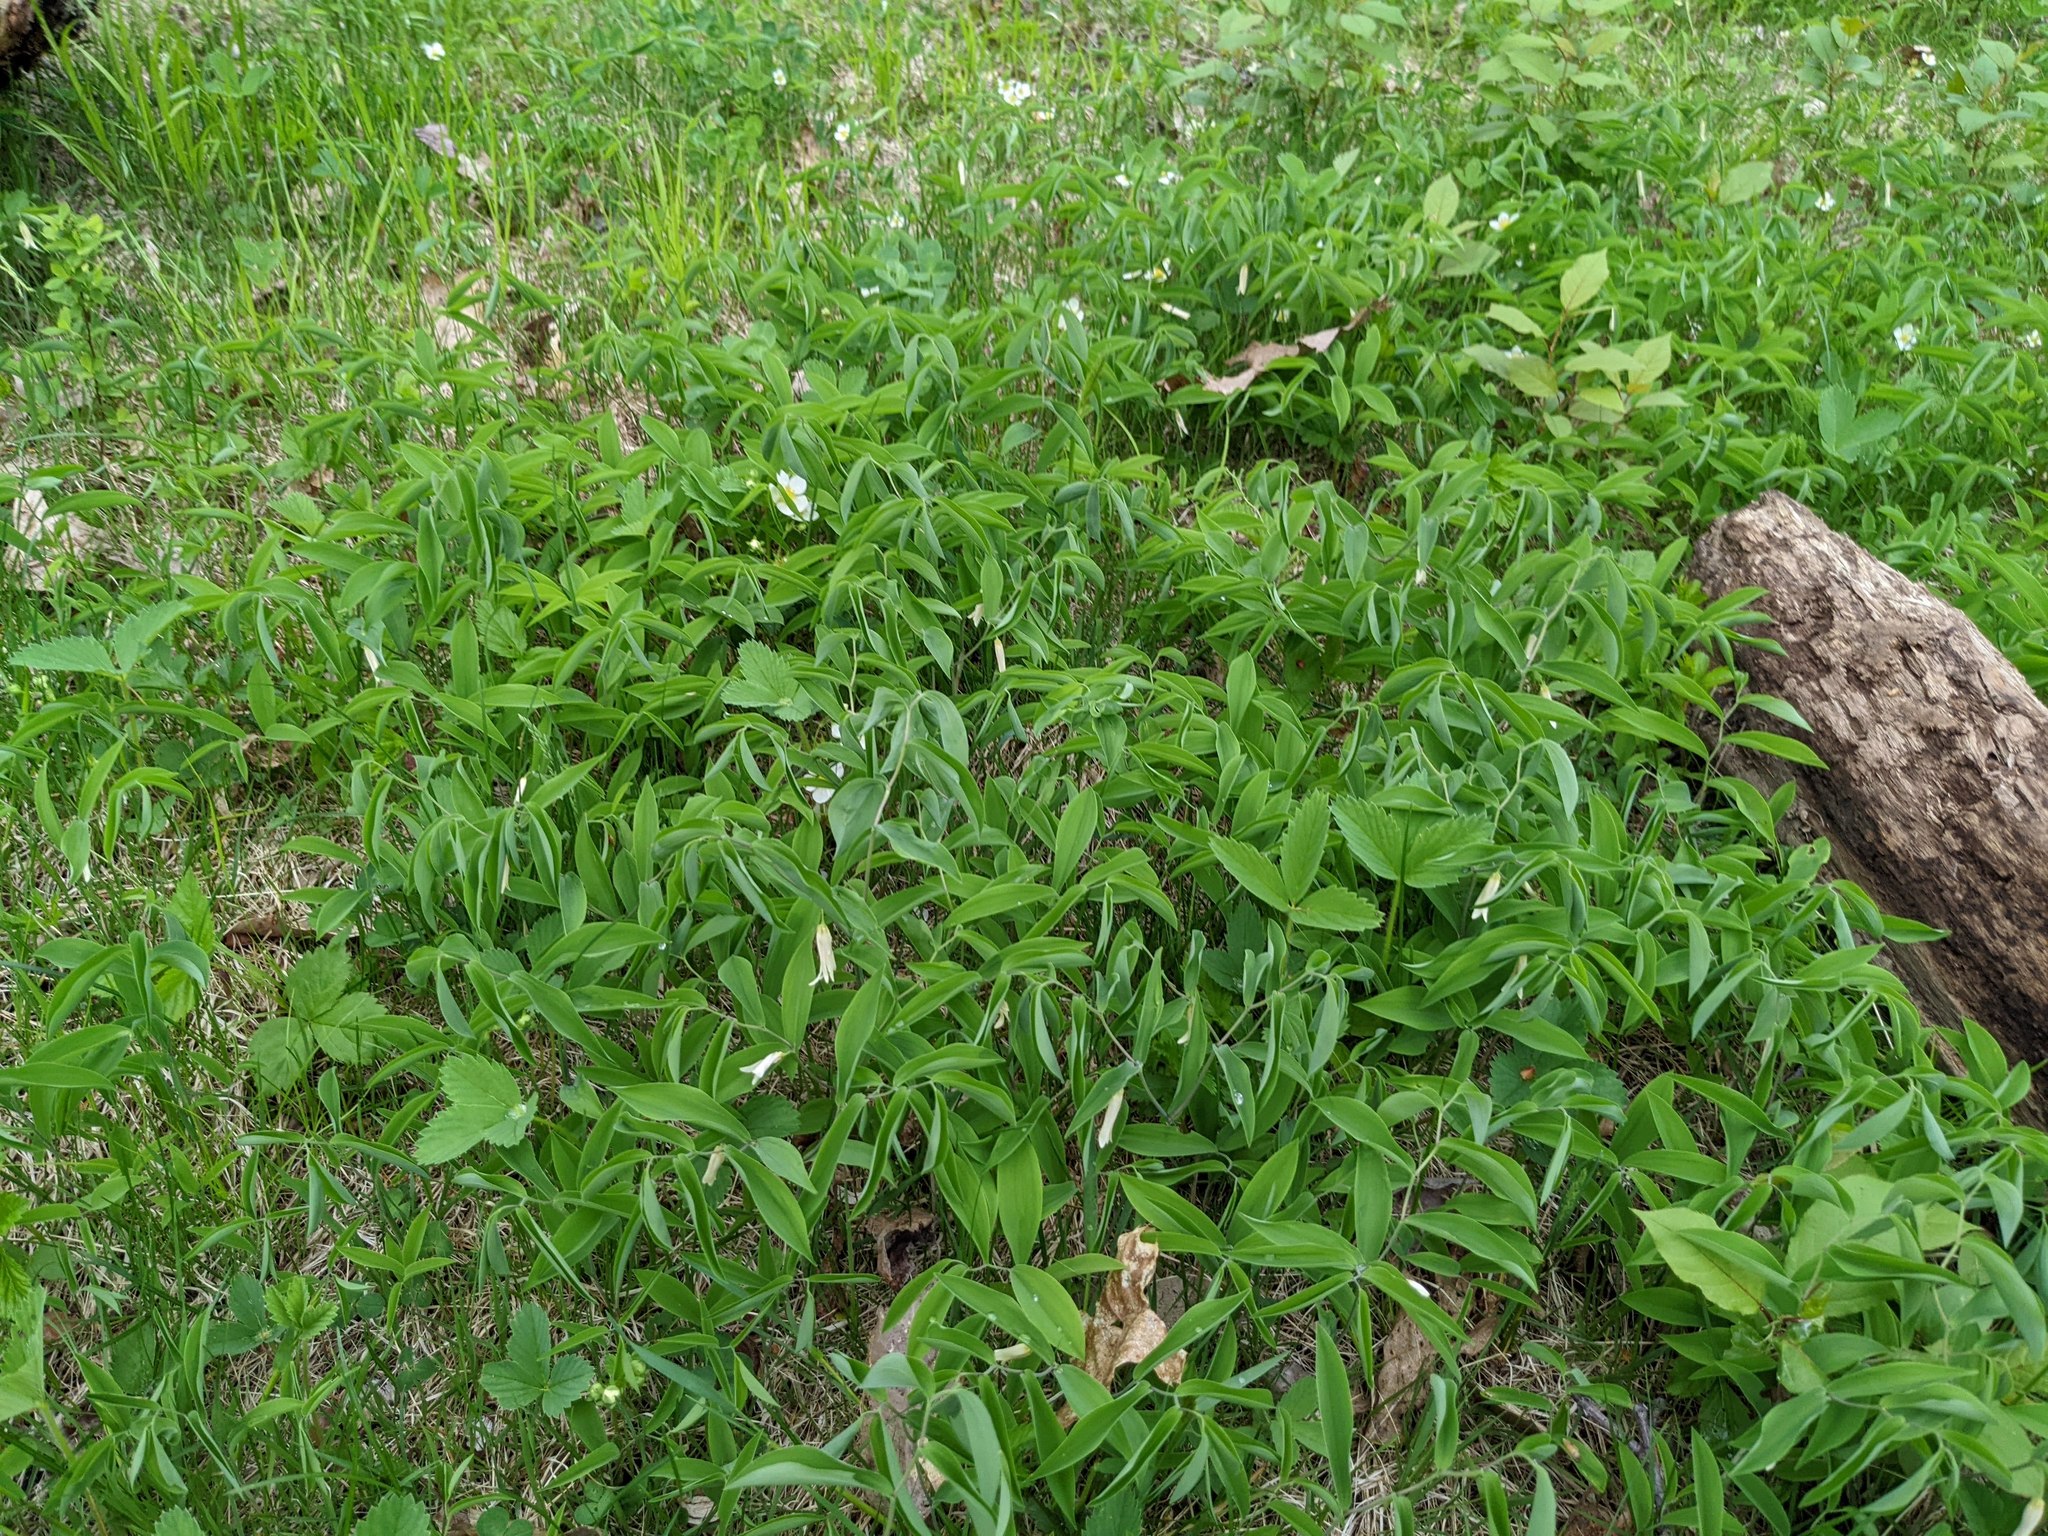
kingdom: Plantae
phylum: Tracheophyta
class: Liliopsida
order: Liliales
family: Colchicaceae
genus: Uvularia
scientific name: Uvularia sessilifolia
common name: Straw-lily
